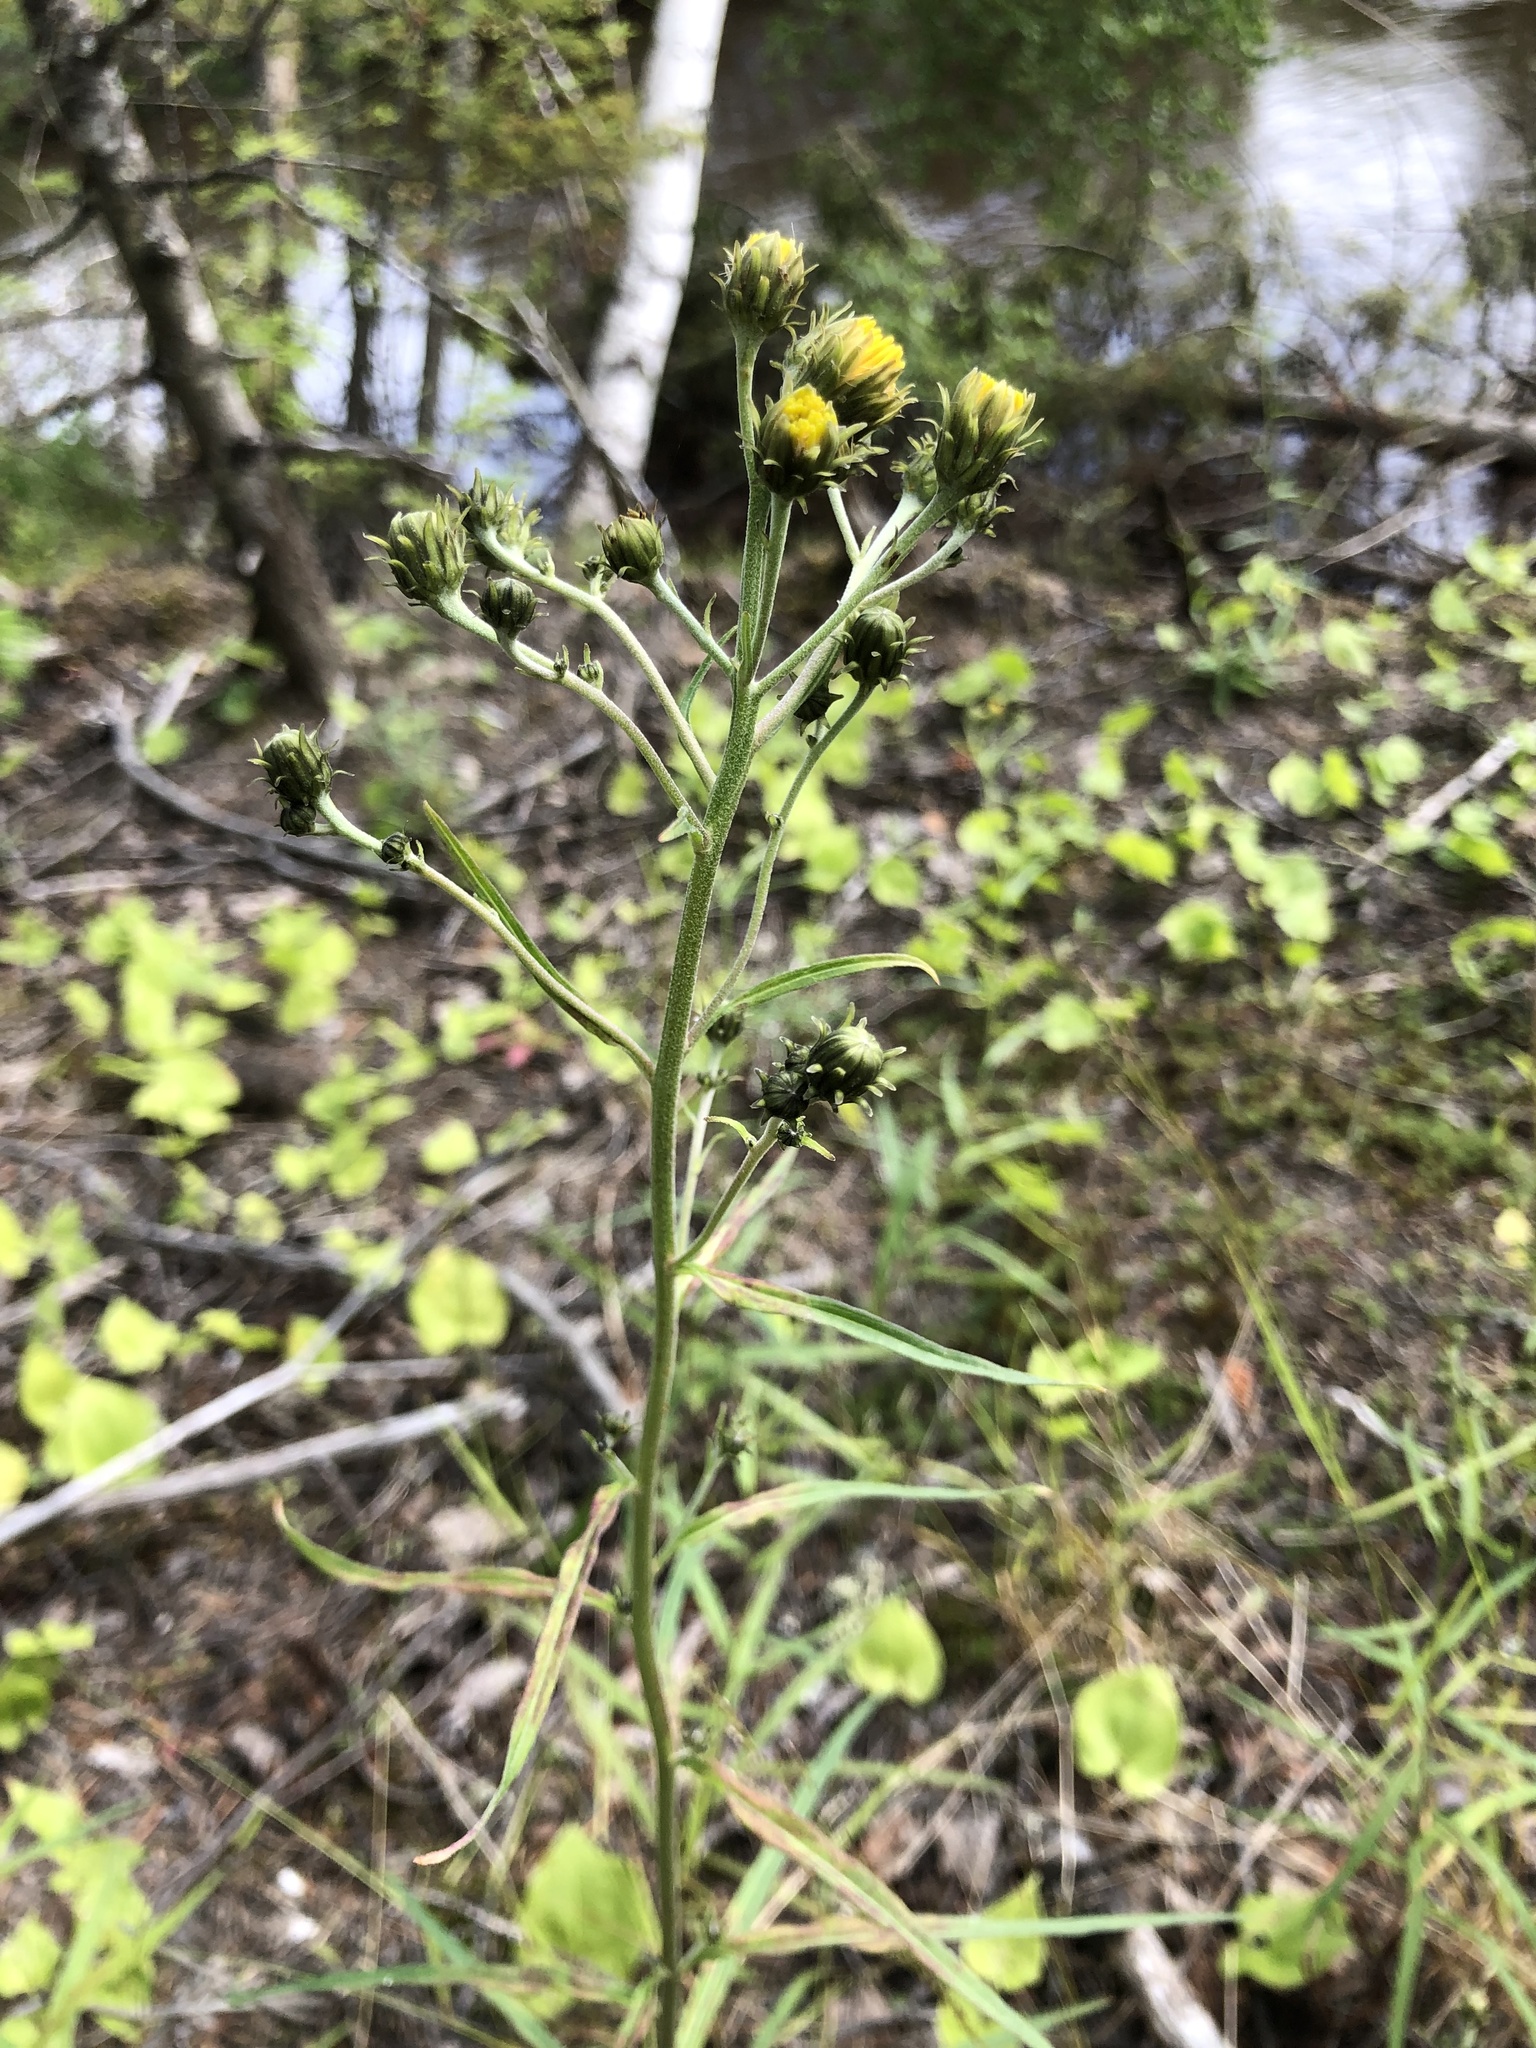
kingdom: Plantae
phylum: Tracheophyta
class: Magnoliopsida
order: Asterales
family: Asteraceae
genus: Hieracium
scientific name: Hieracium umbellatum
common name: Northern hawkweed
